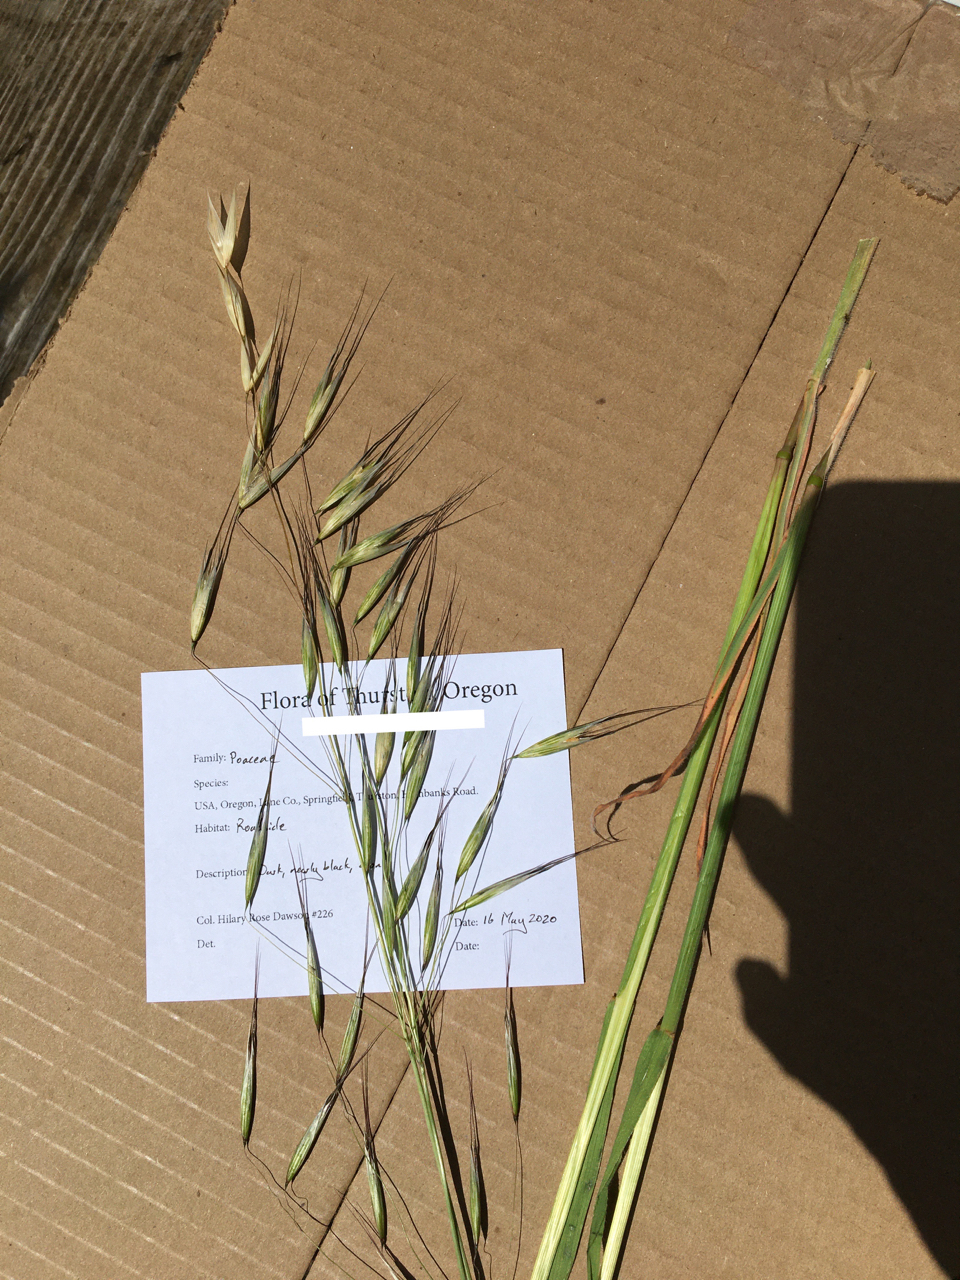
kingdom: Plantae
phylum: Tracheophyta
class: Liliopsida
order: Poales
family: Poaceae
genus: Avena
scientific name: Avena barbata
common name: Slender oat
